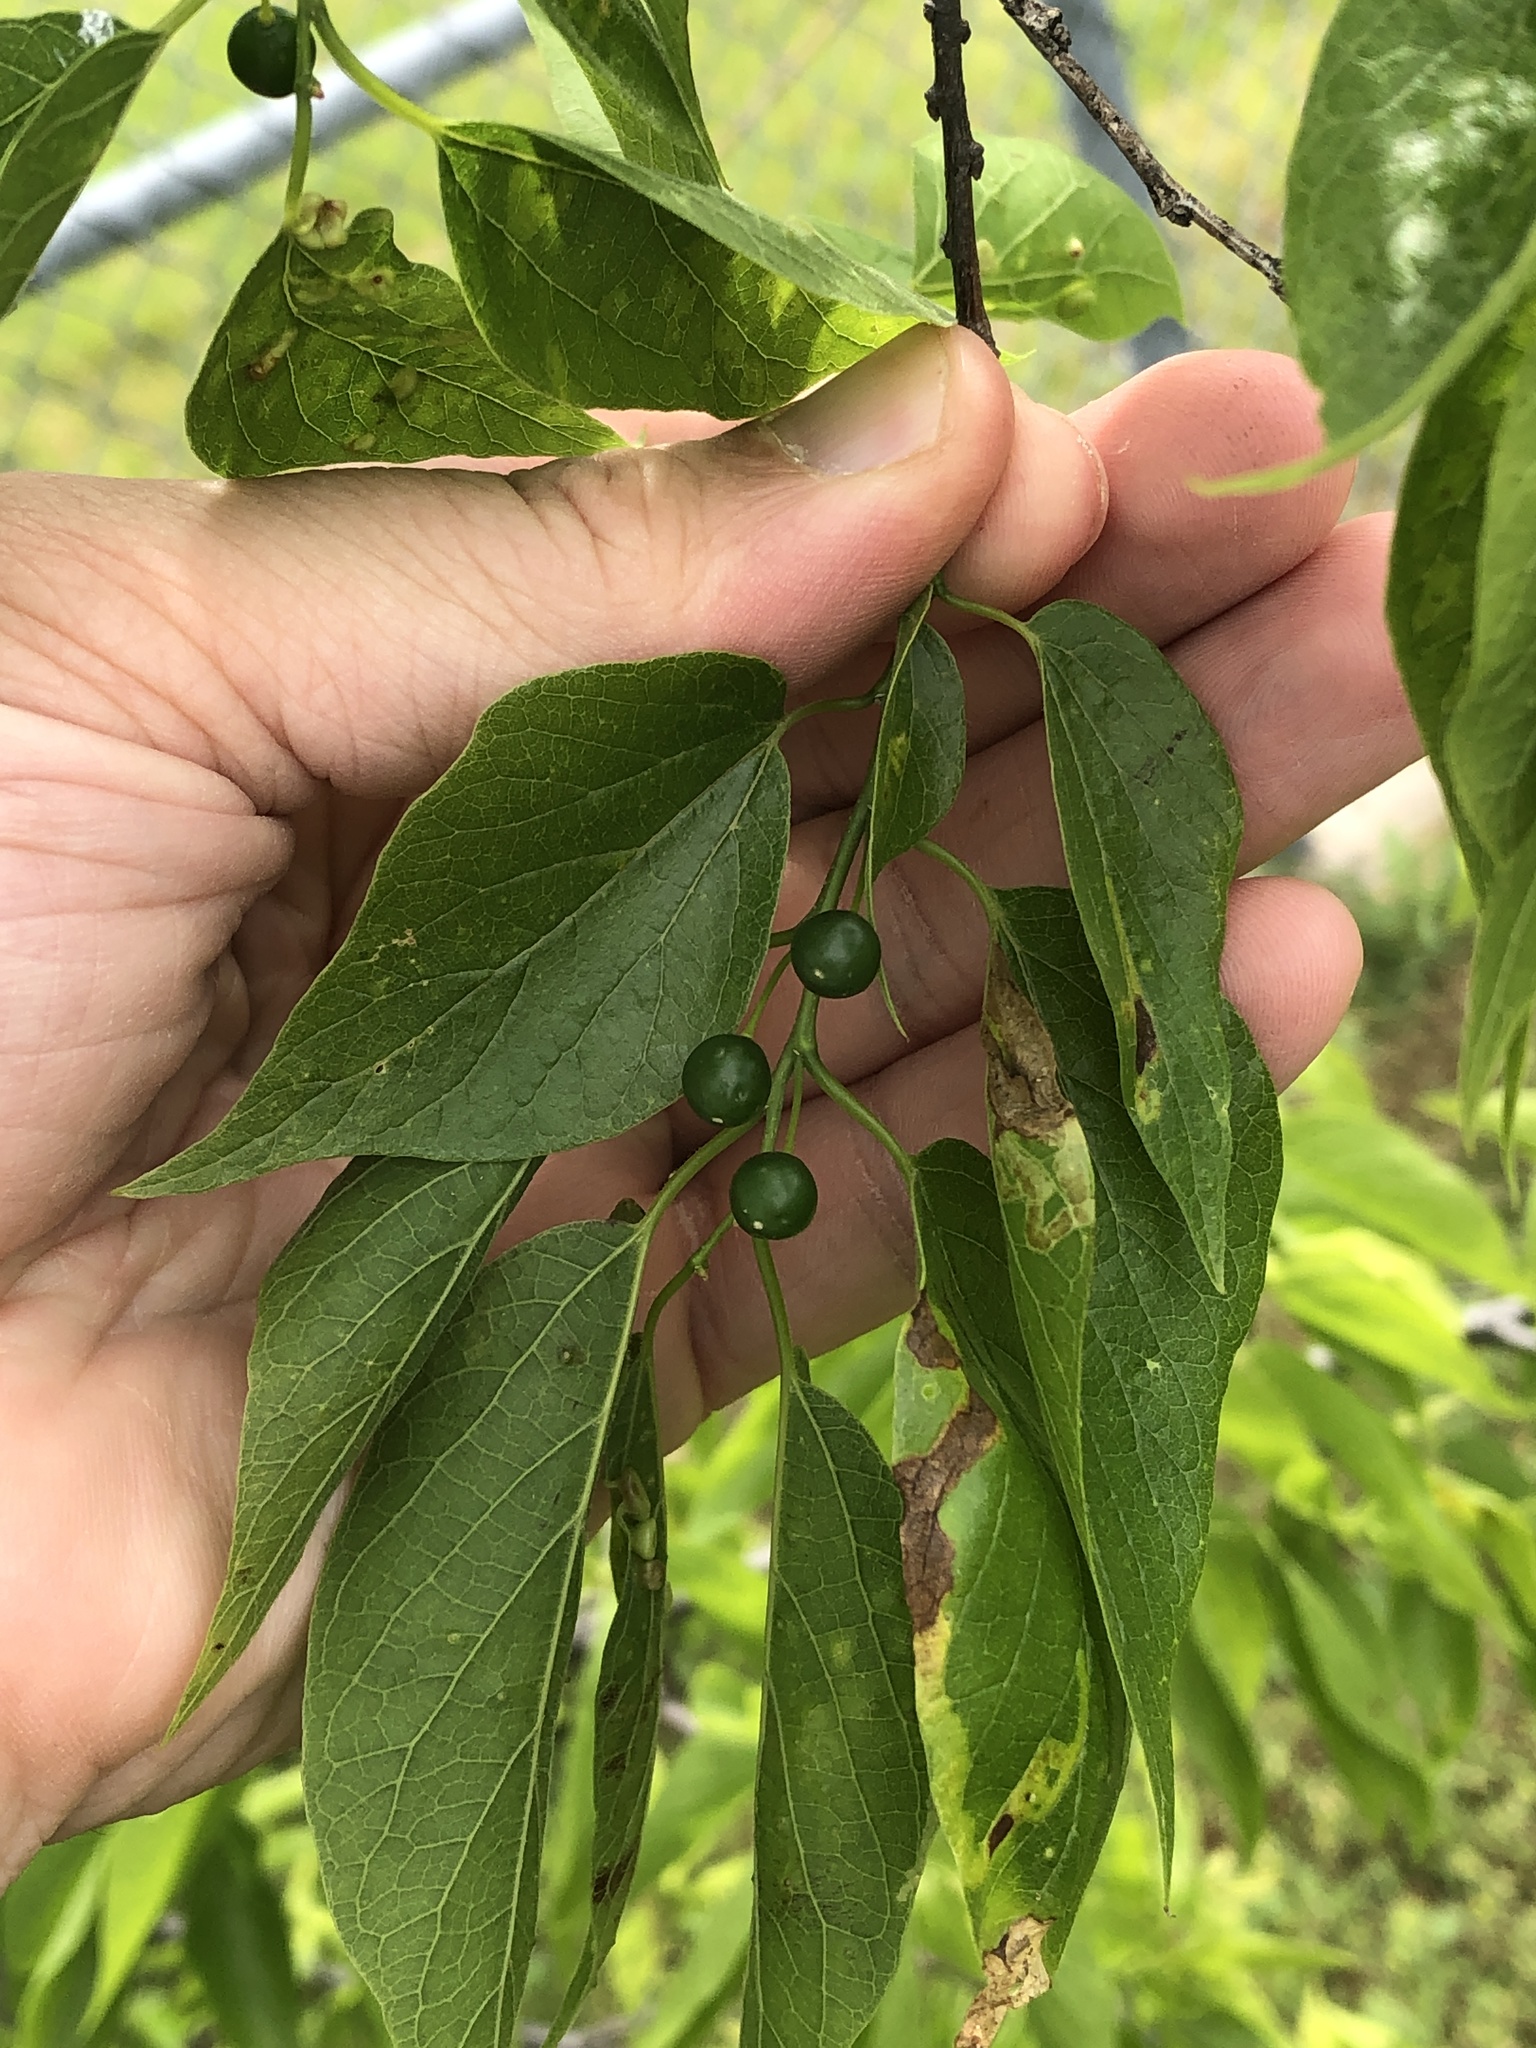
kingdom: Plantae
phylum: Tracheophyta
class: Magnoliopsida
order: Rosales
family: Cannabaceae
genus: Celtis
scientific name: Celtis laevigata
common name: Sugarberry
